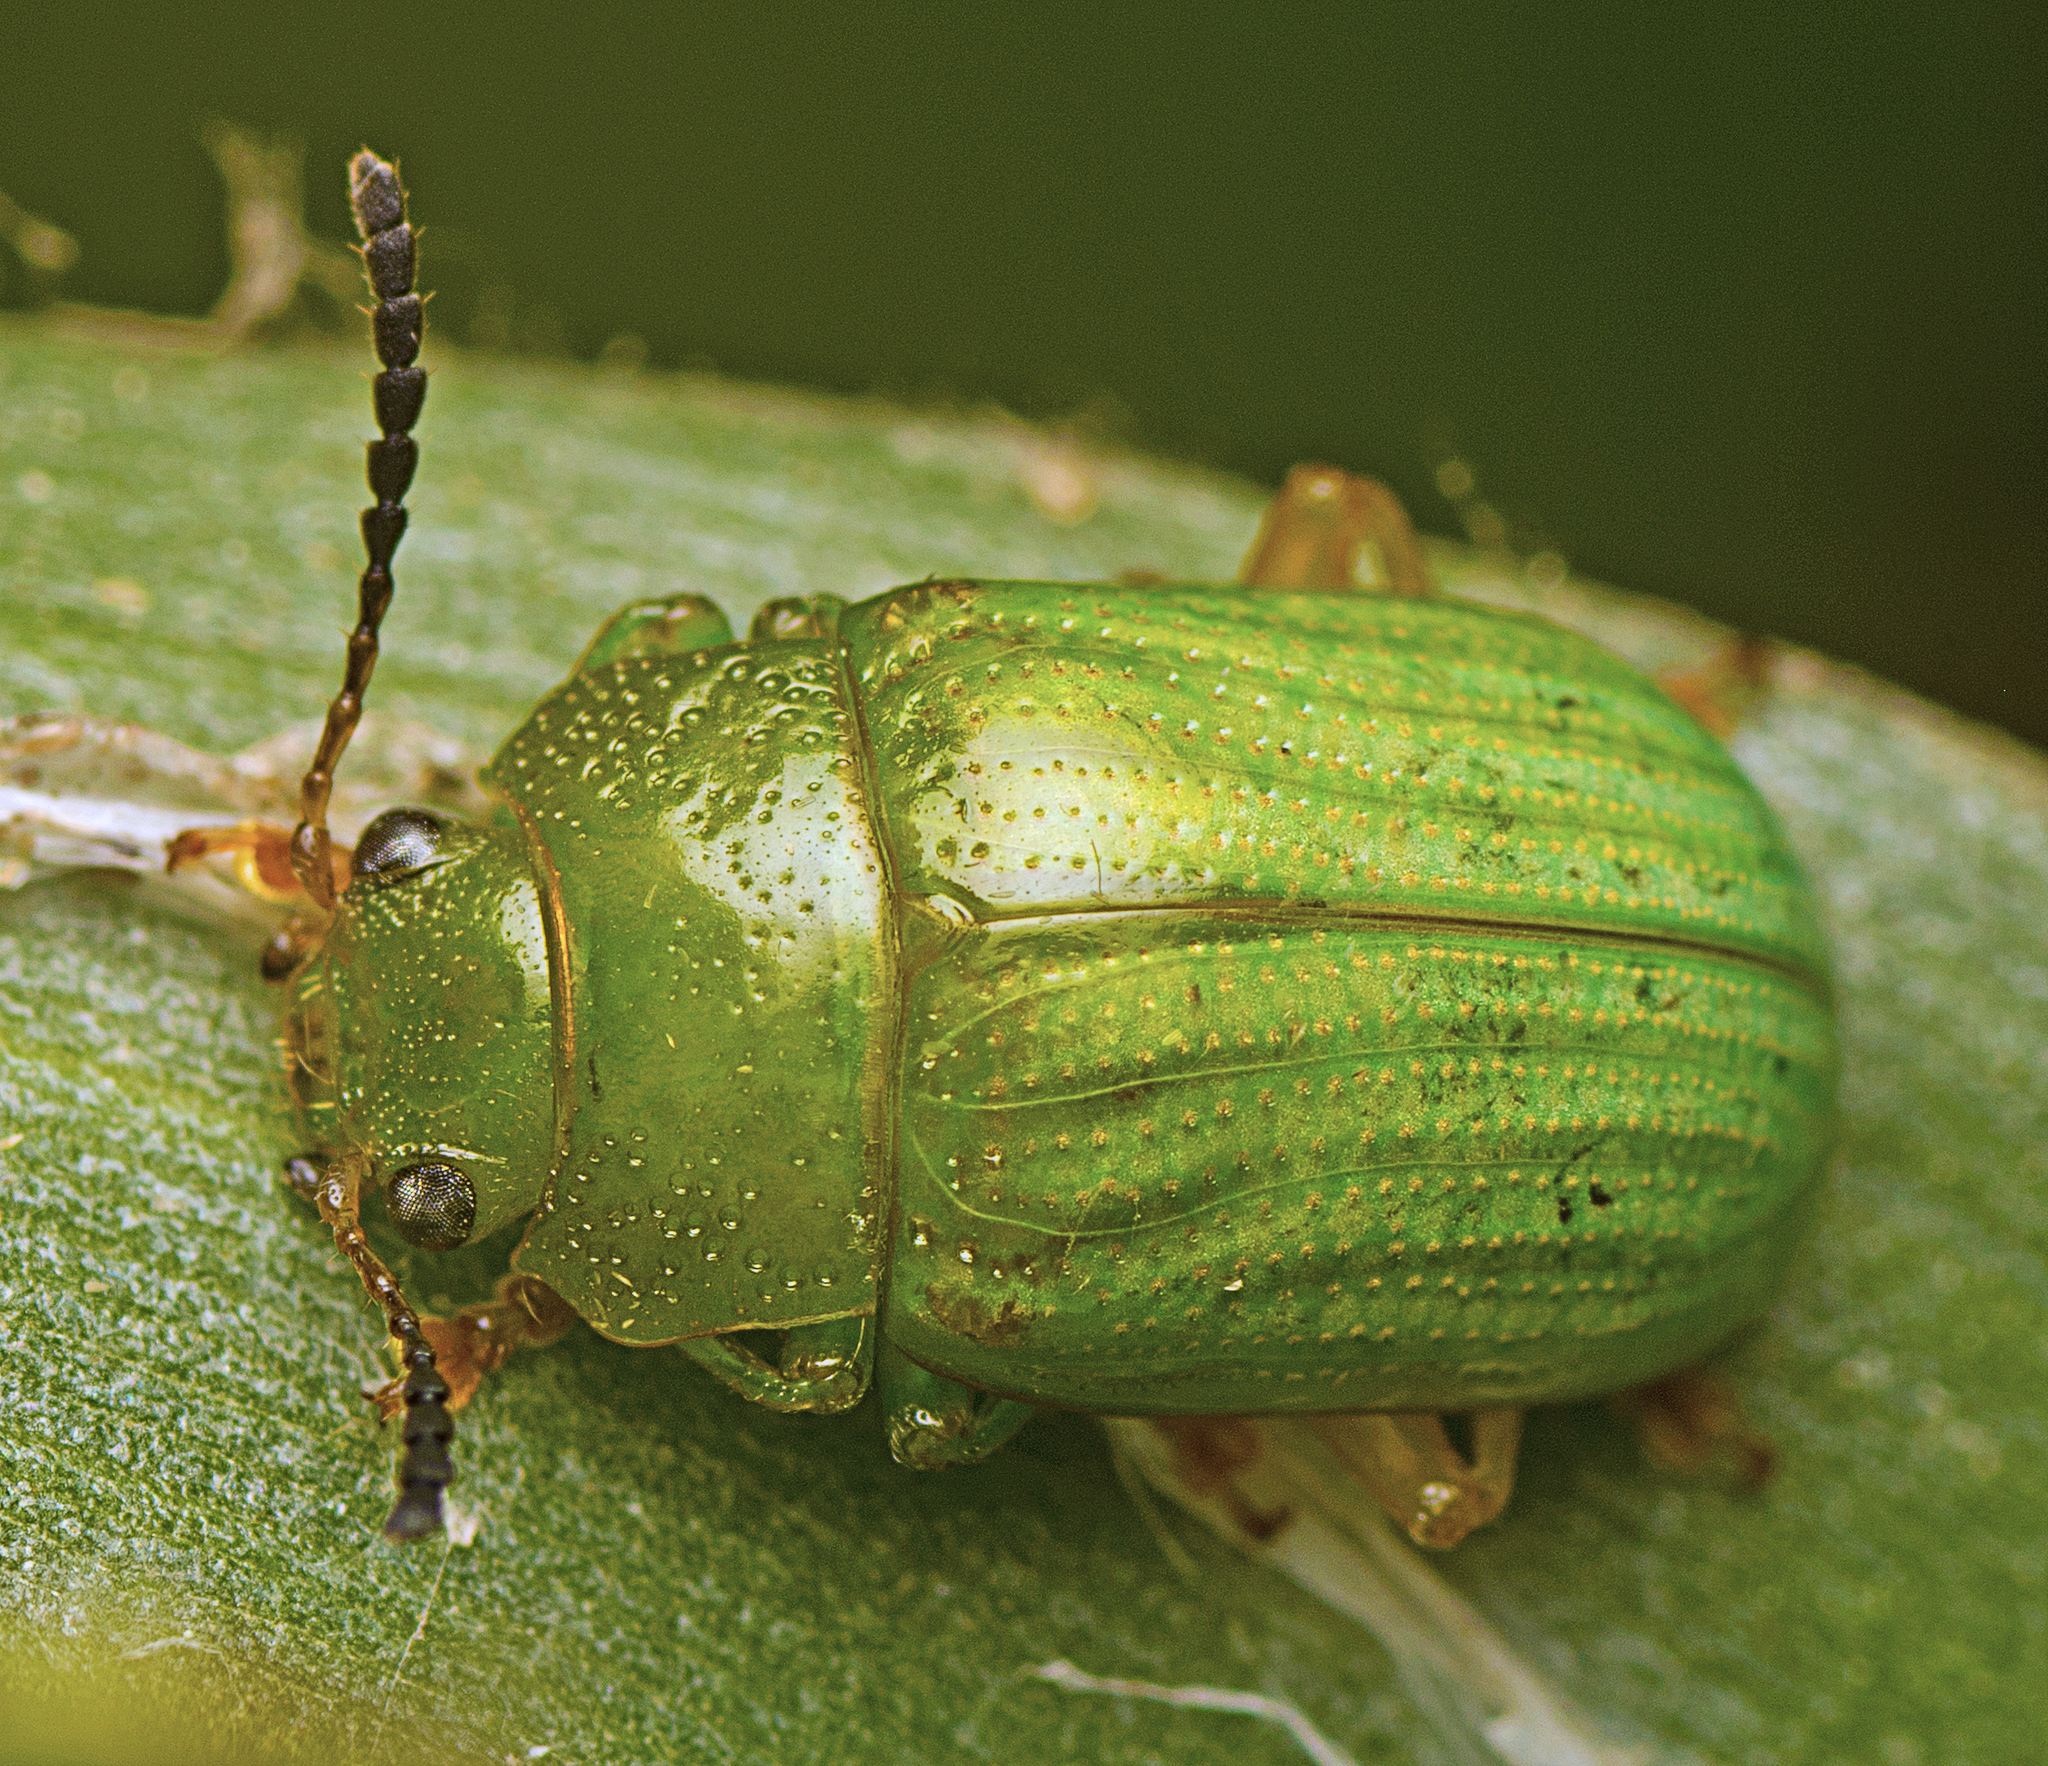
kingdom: Animalia
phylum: Arthropoda
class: Insecta
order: Coleoptera
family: Chrysomelidae
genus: Calomela
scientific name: Calomela
